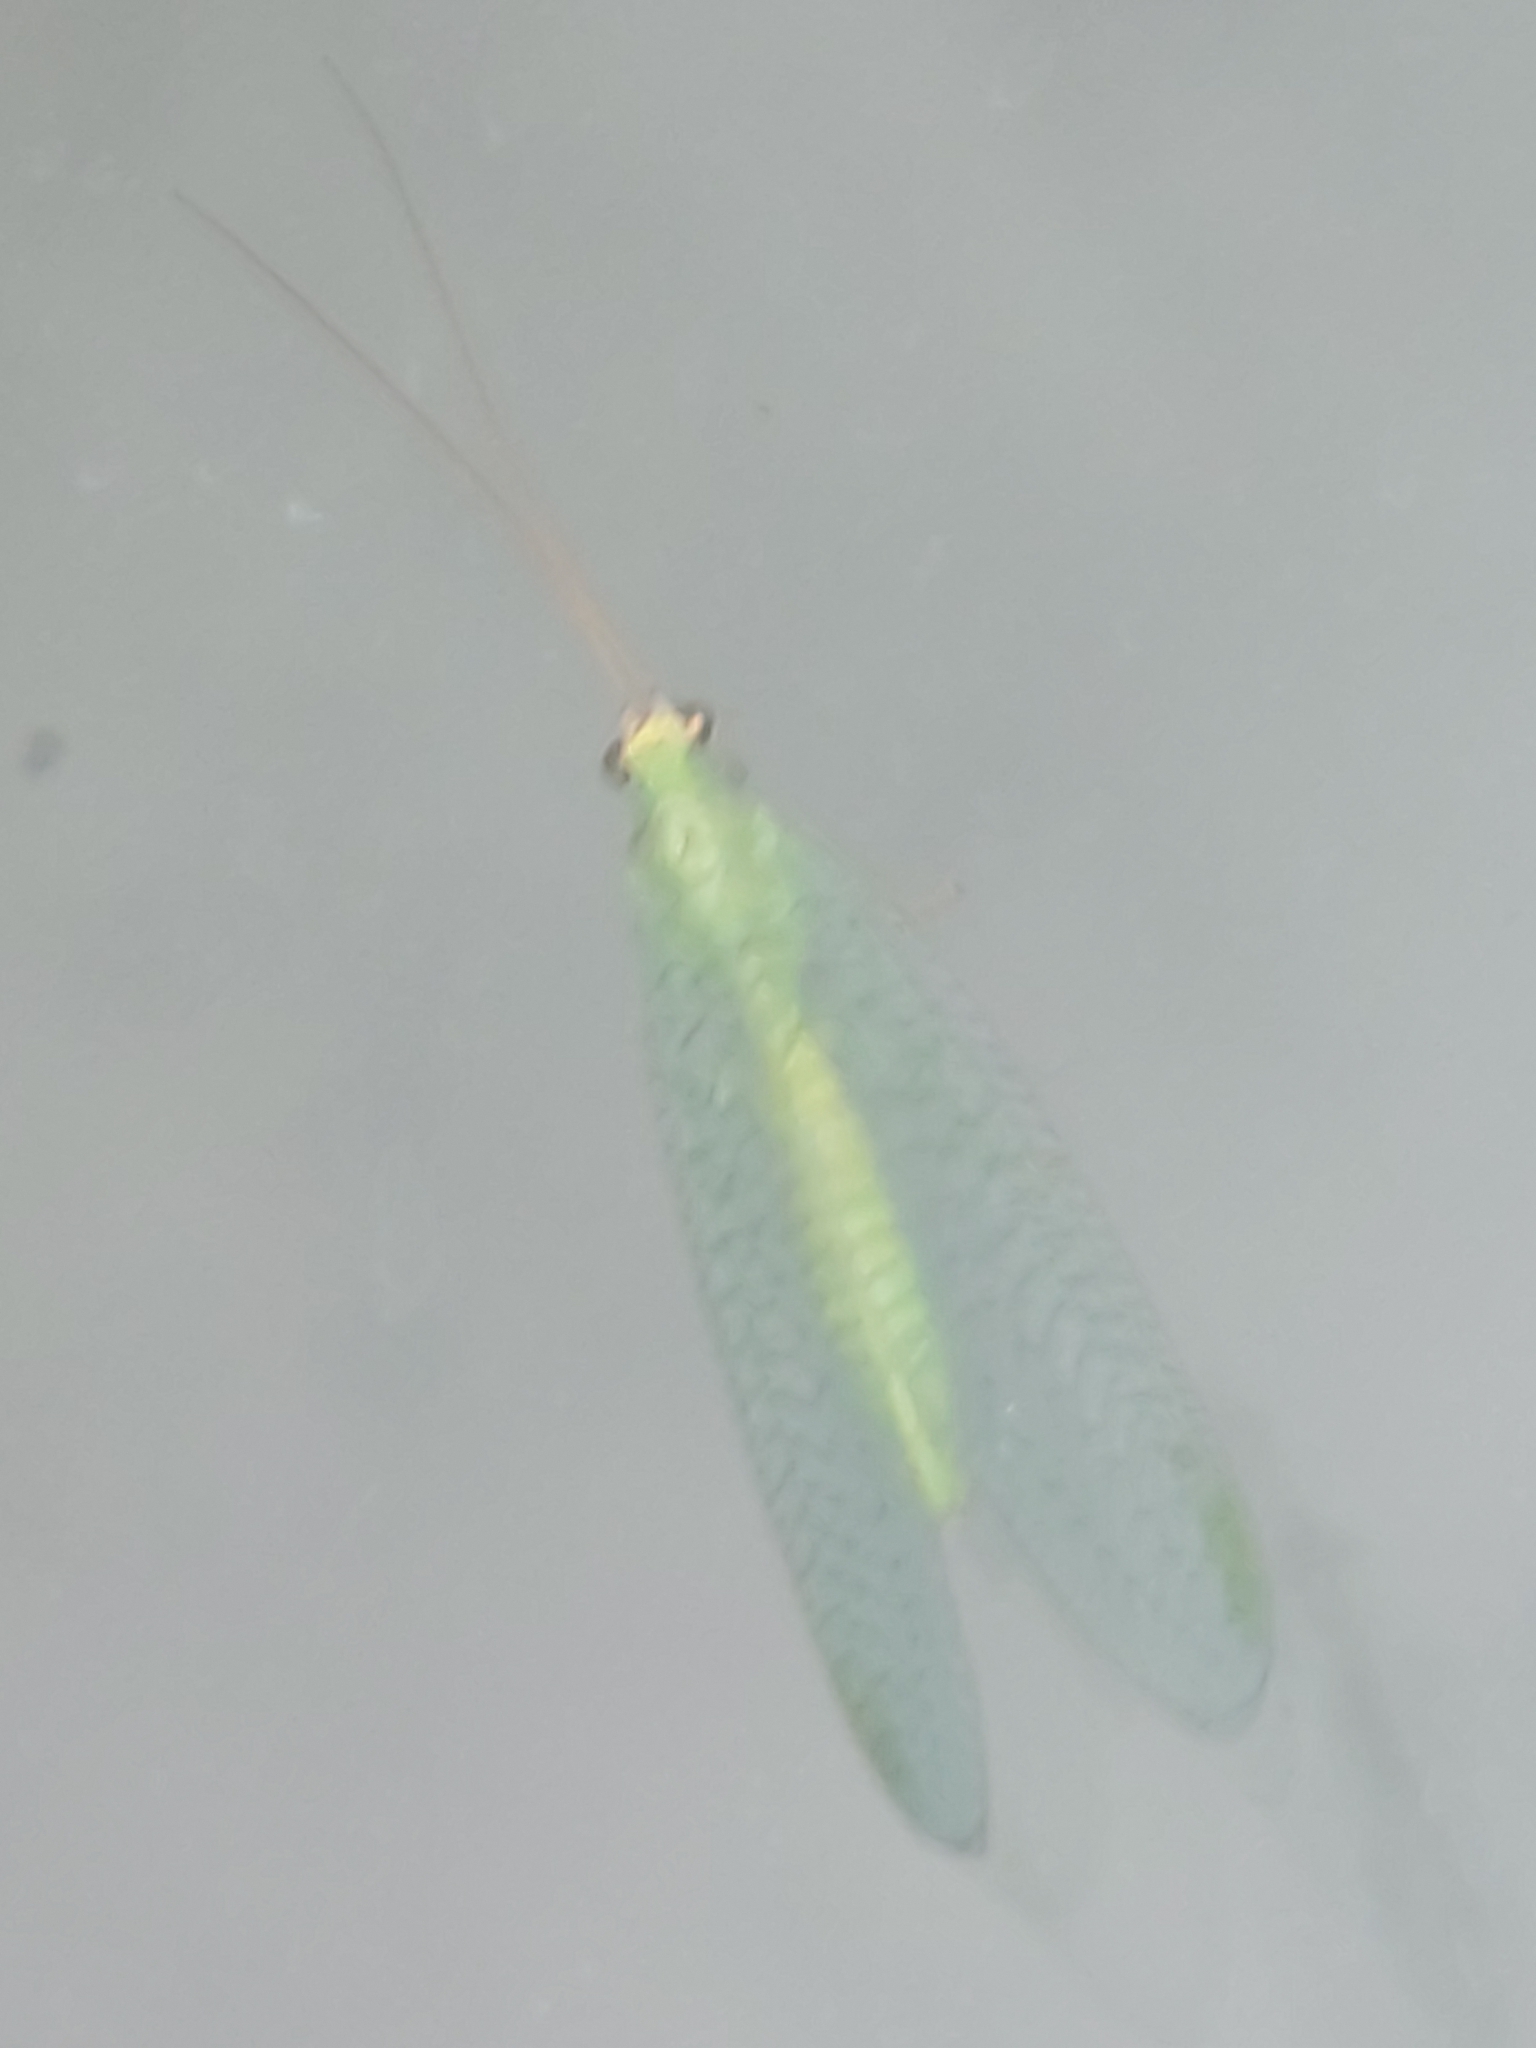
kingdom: Animalia
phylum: Arthropoda
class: Insecta
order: Neuroptera
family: Chrysopidae
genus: Chrysopa
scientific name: Chrysopa oculata
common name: Golden-eyed lacewing
